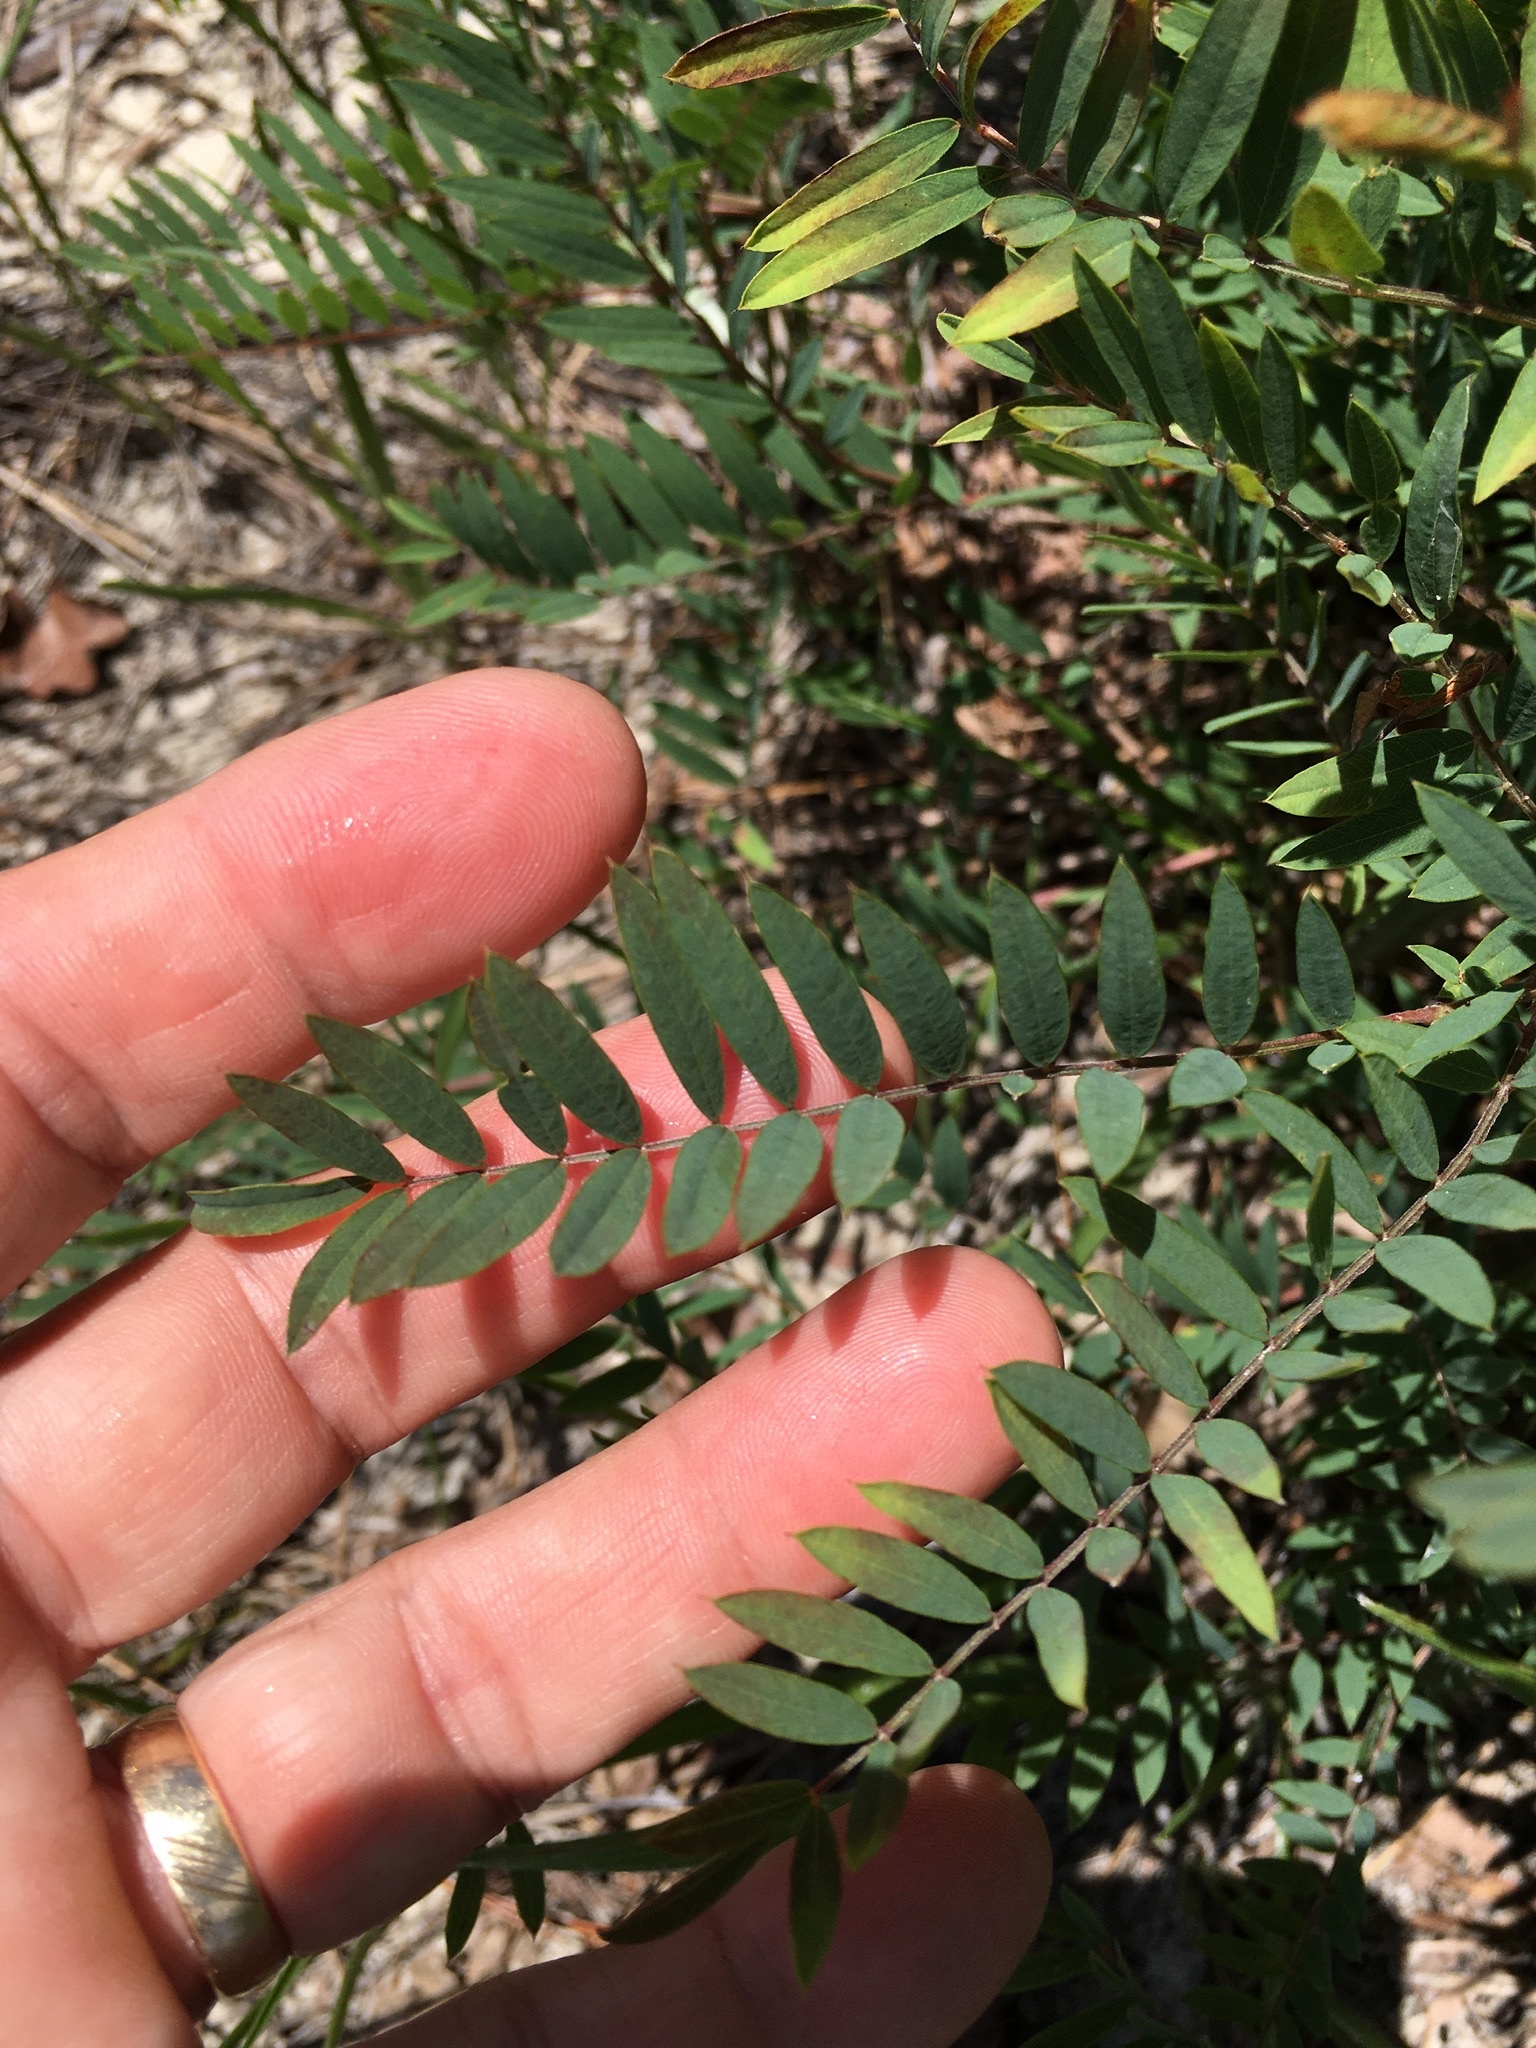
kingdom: Plantae
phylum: Tracheophyta
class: Magnoliopsida
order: Fabales
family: Fabaceae
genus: Tephrosia
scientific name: Tephrosia virginiana
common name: Rabbit-pea
